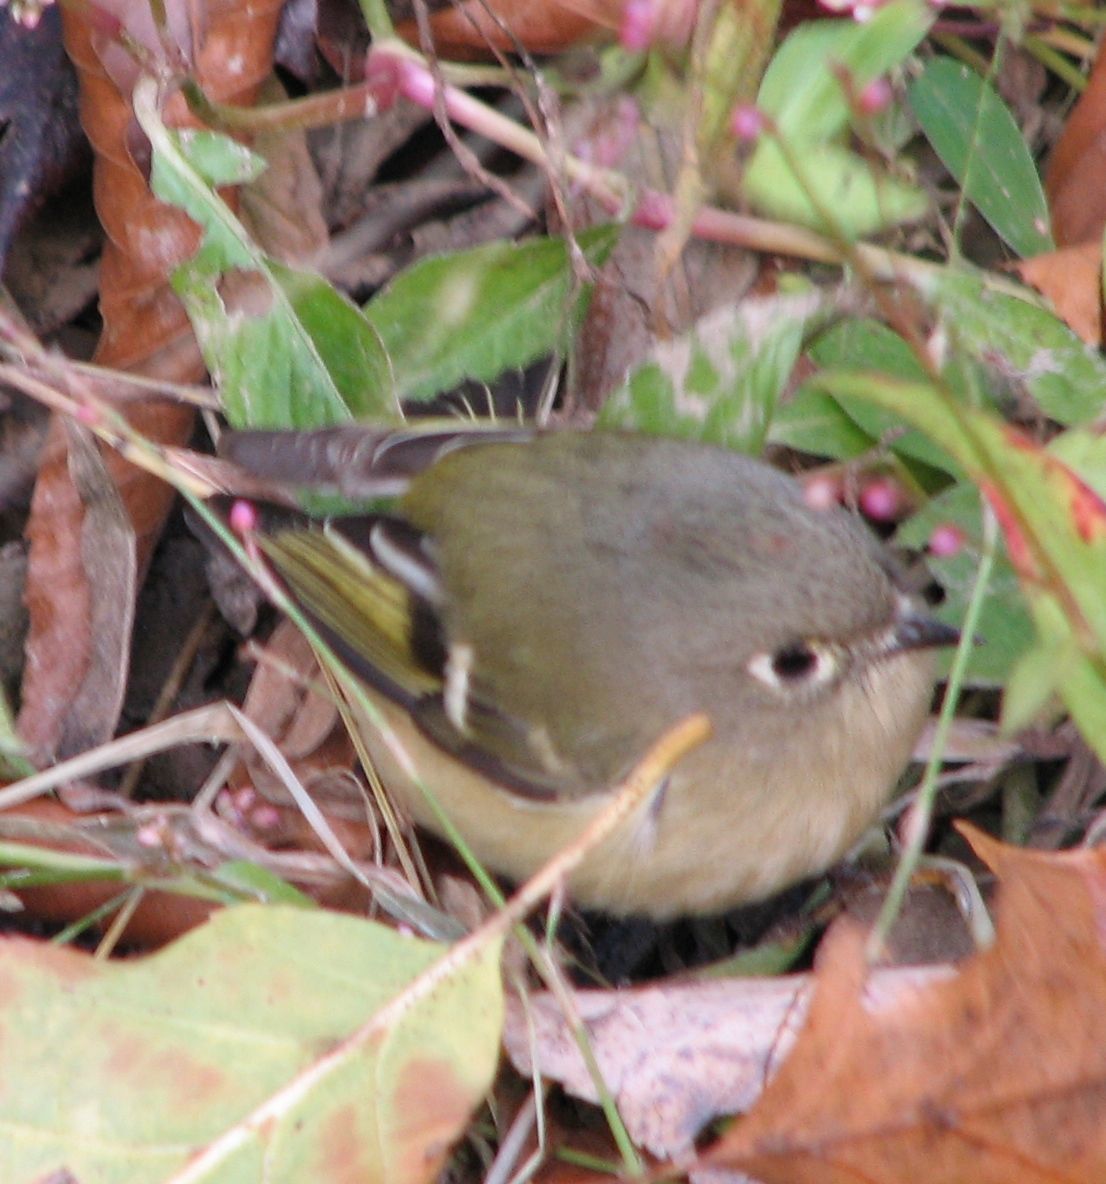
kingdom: Animalia
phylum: Chordata
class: Aves
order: Passeriformes
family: Regulidae
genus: Regulus
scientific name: Regulus calendula
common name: Ruby-crowned kinglet
